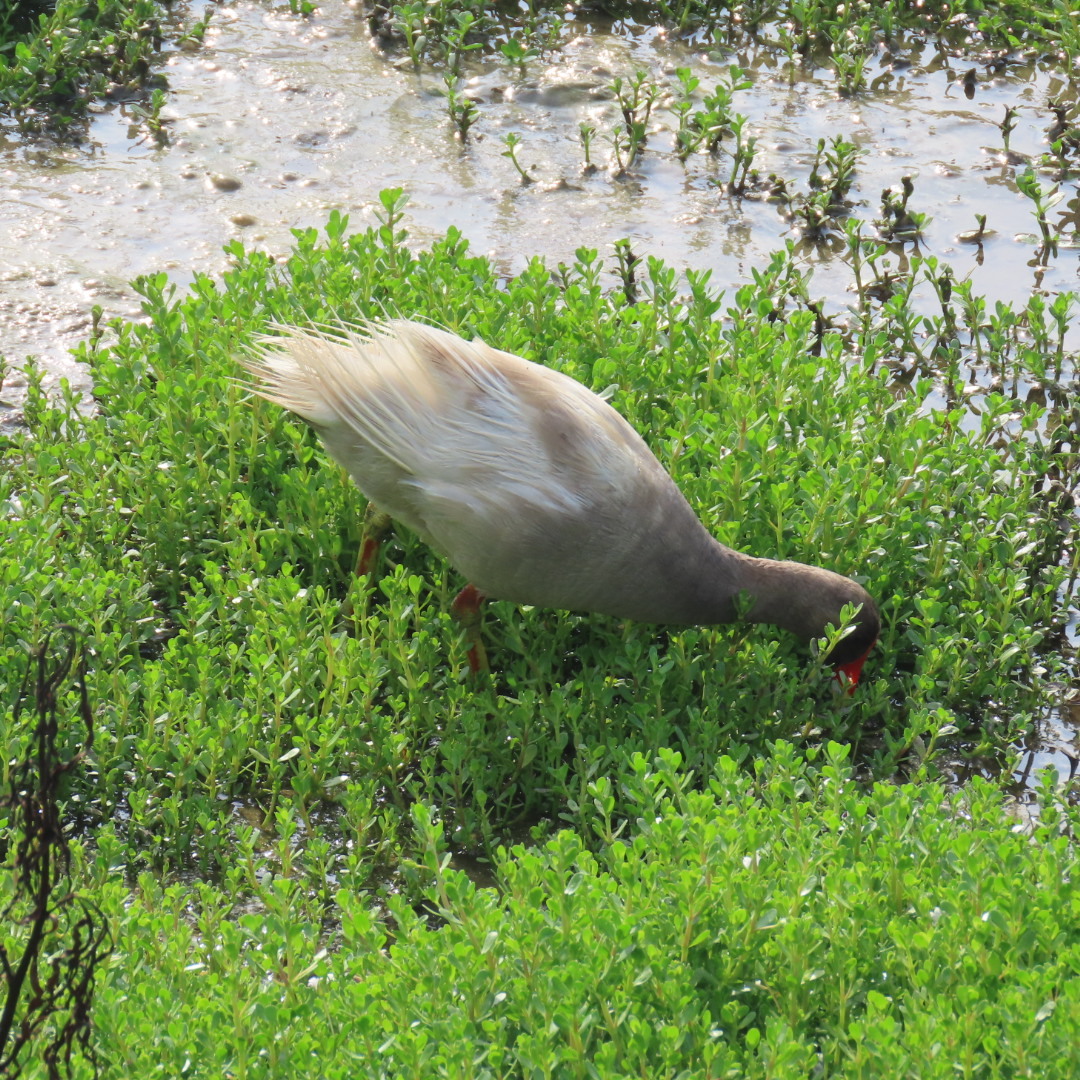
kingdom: Animalia
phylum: Chordata
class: Aves
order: Gruiformes
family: Rallidae
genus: Gallinula
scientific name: Gallinula chloropus
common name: Common moorhen
